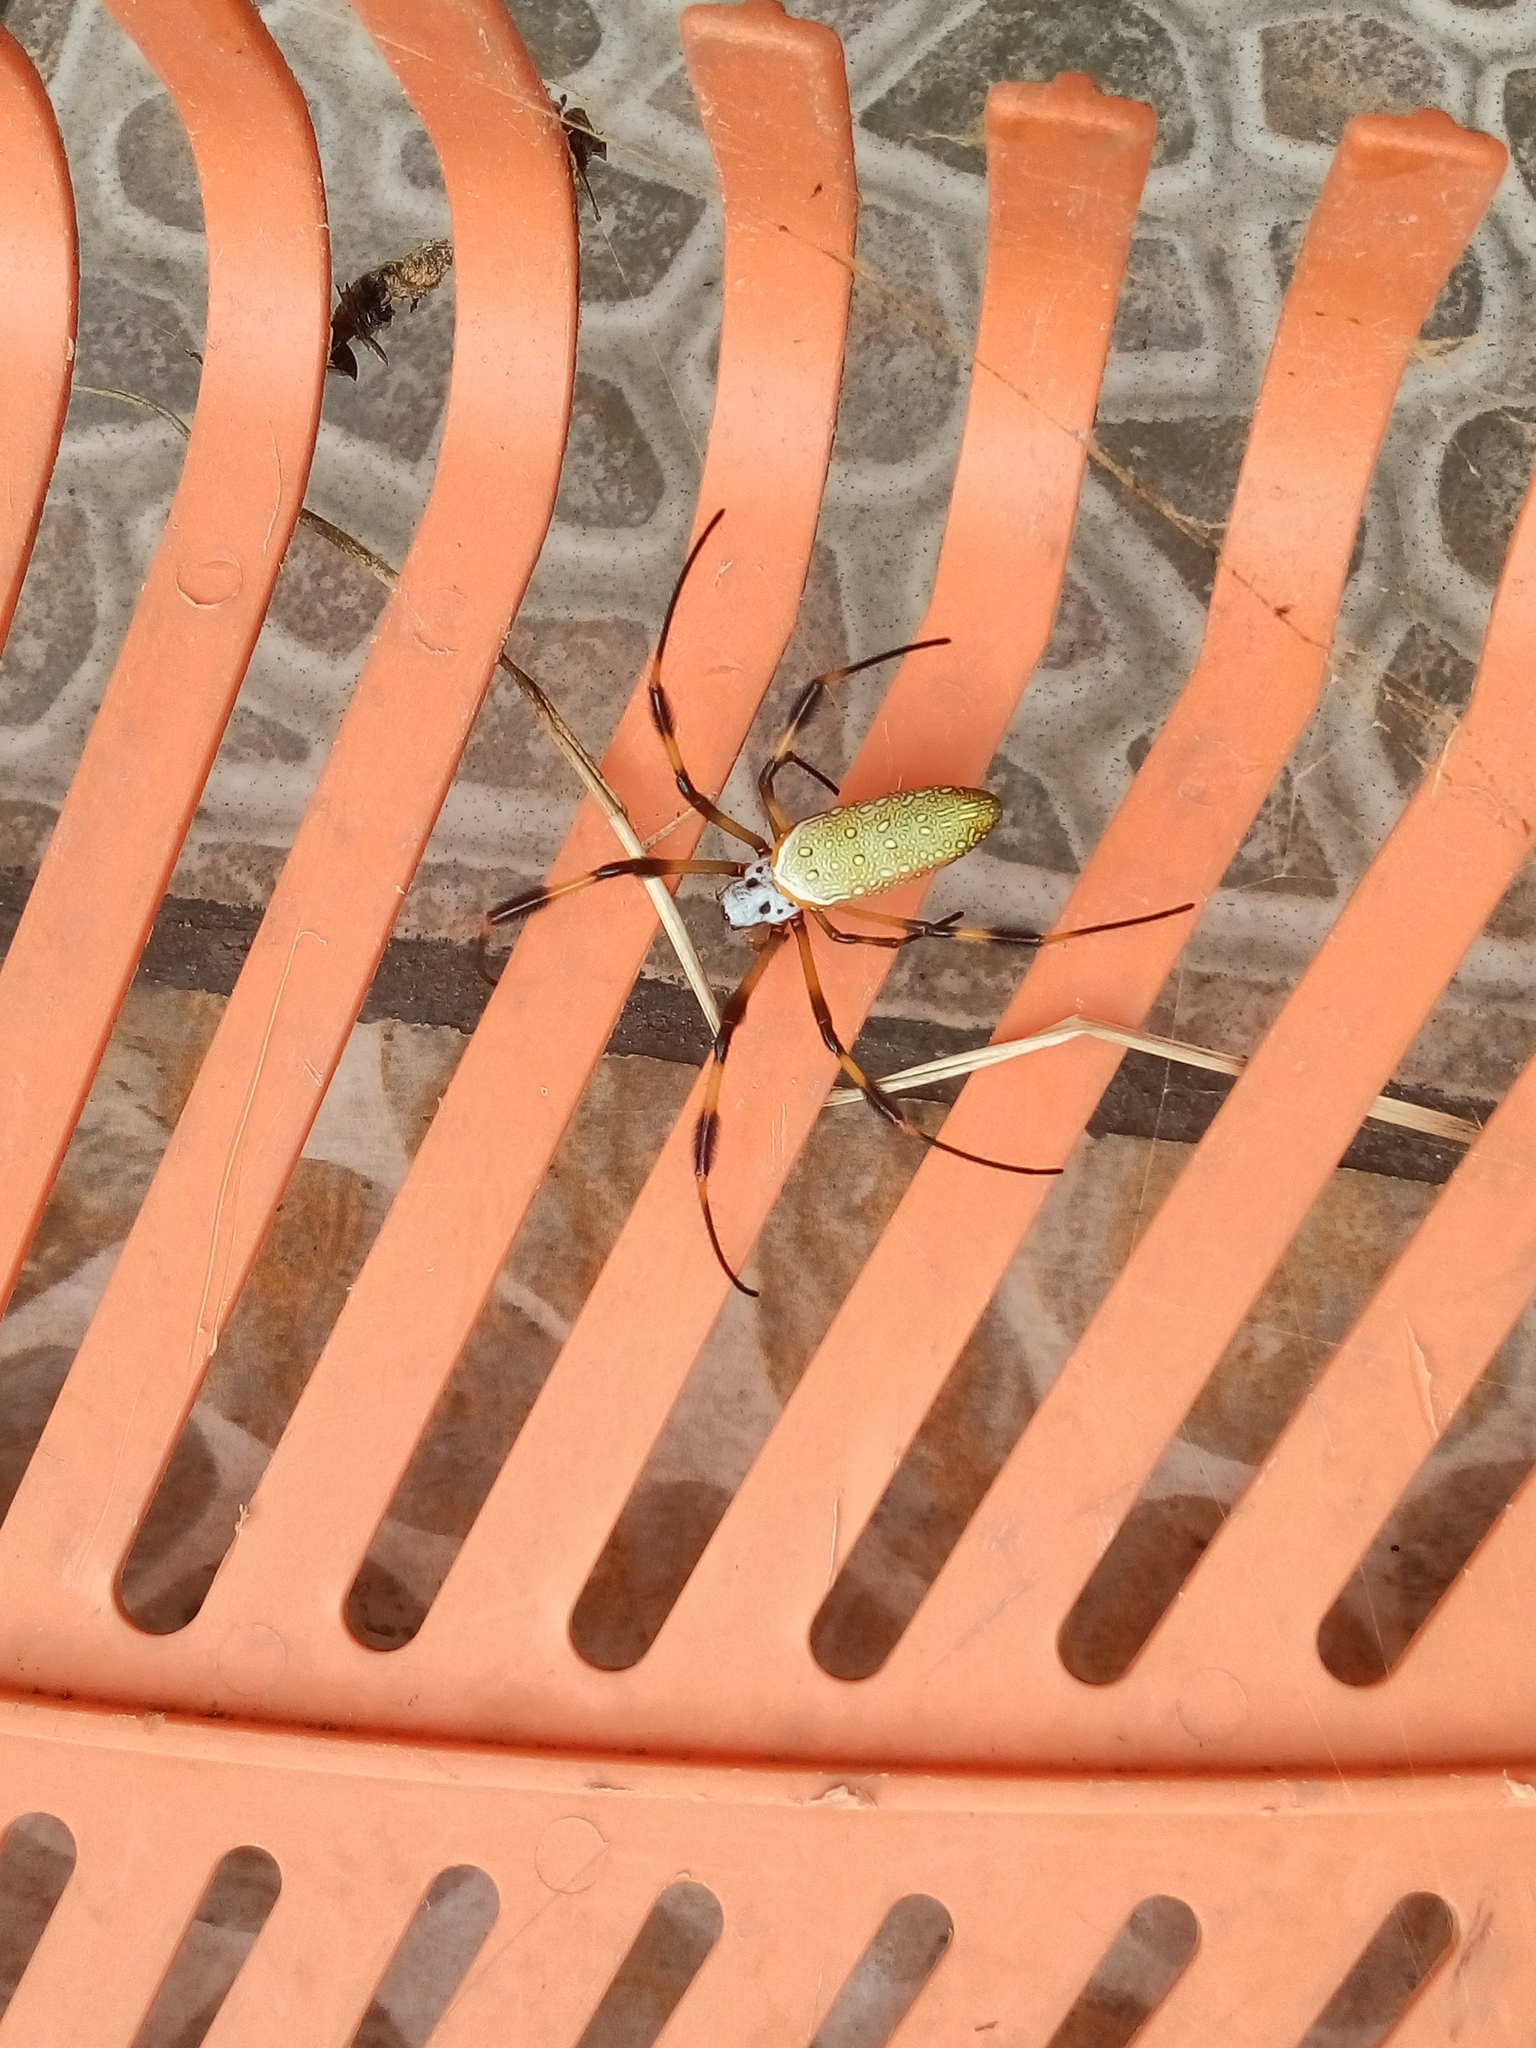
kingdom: Animalia
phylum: Arthropoda
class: Arachnida
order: Araneae
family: Araneidae
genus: Trichonephila
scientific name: Trichonephila clavipes
